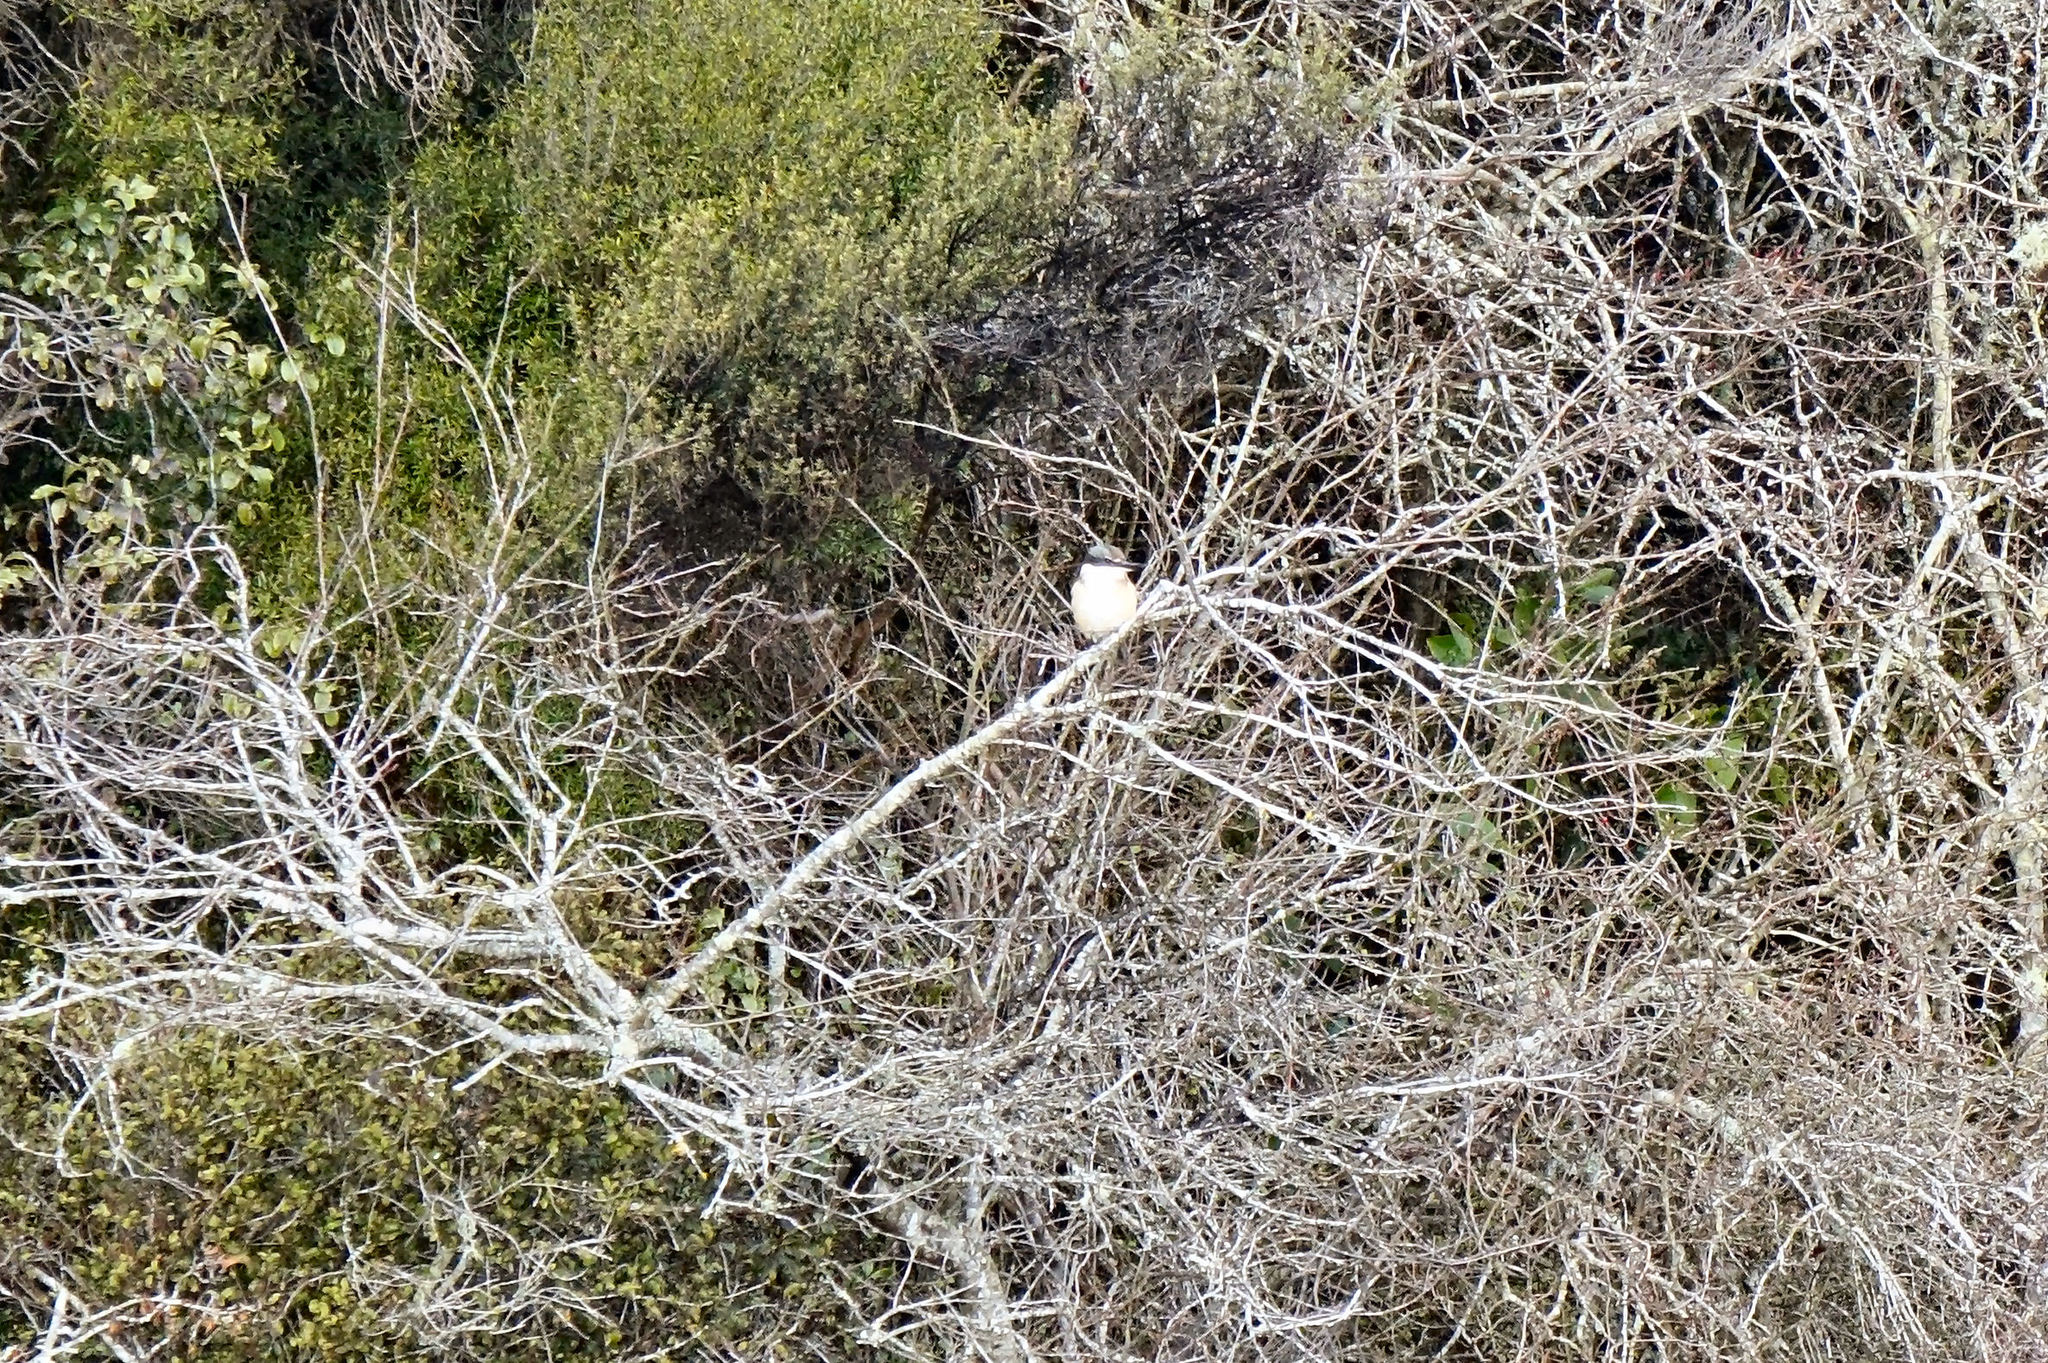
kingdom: Animalia
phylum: Chordata
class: Aves
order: Coraciiformes
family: Alcedinidae
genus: Todiramphus
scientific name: Todiramphus sanctus
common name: Sacred kingfisher
